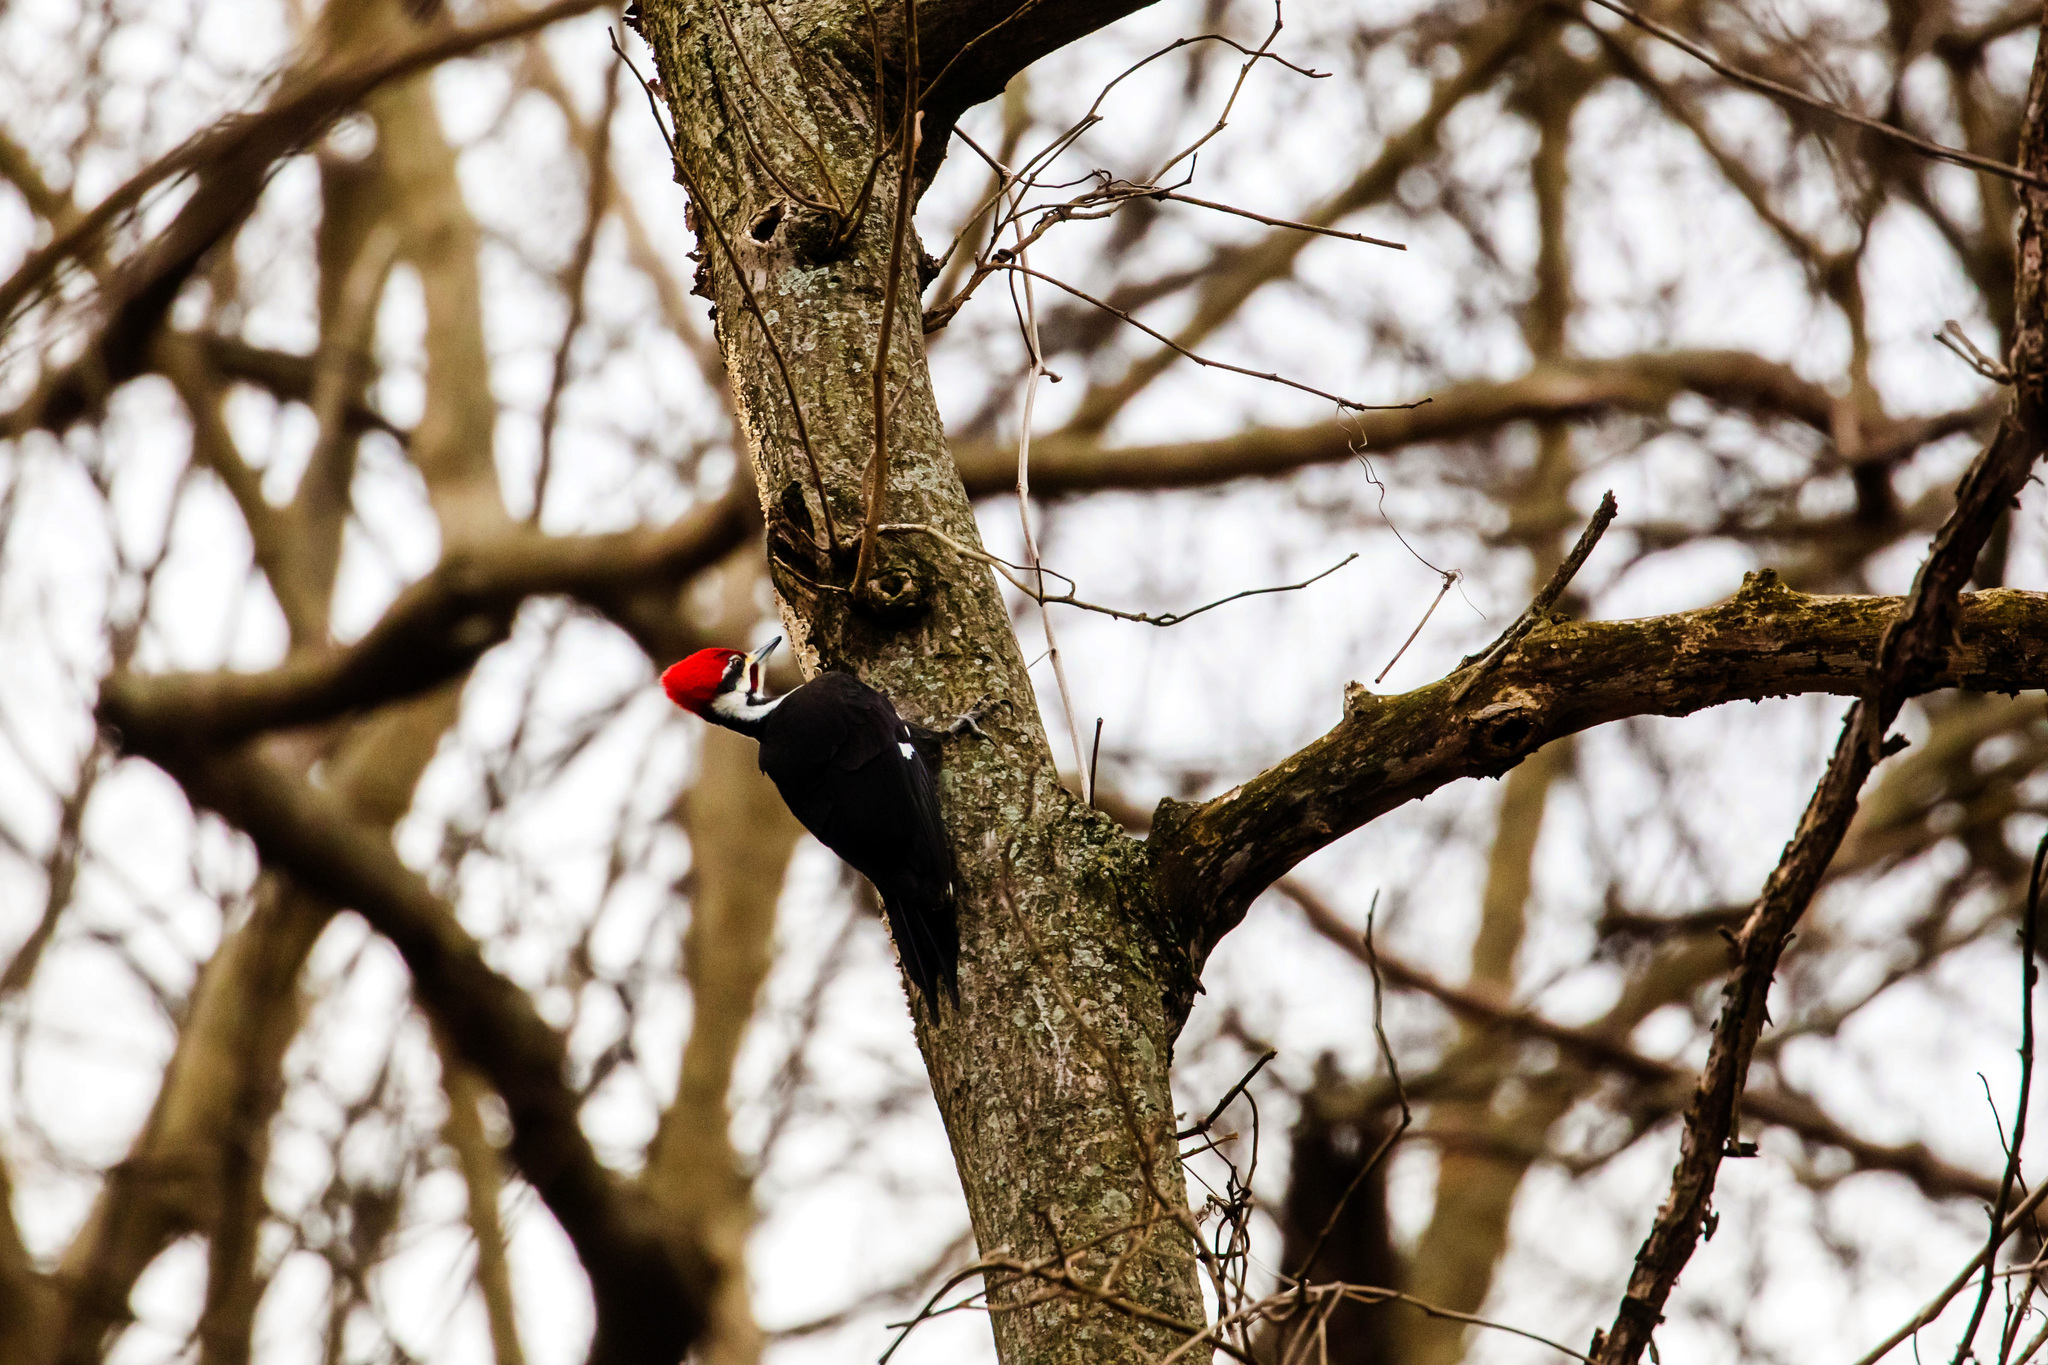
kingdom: Animalia
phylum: Chordata
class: Aves
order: Piciformes
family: Picidae
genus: Dryocopus
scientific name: Dryocopus pileatus
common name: Pileated woodpecker
